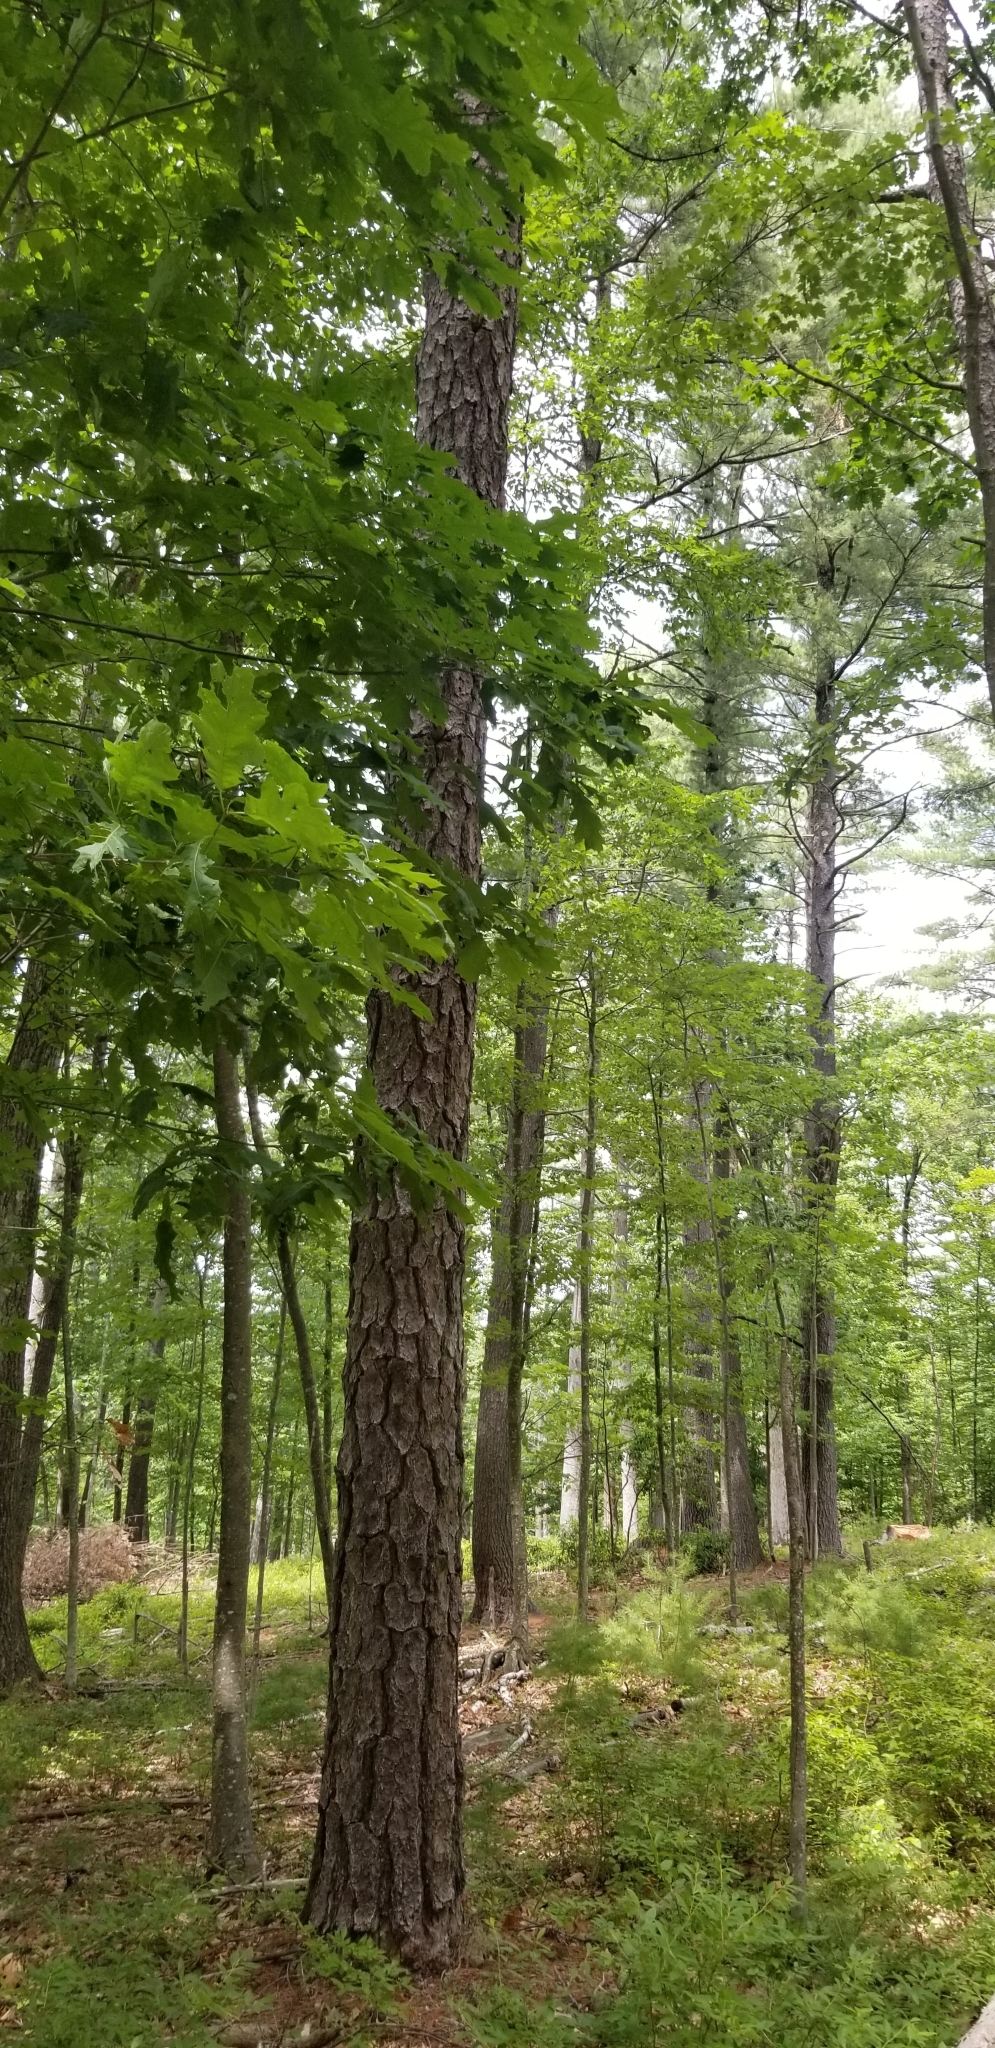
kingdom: Plantae
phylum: Tracheophyta
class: Pinopsida
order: Pinales
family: Pinaceae
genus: Pinus
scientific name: Pinus rigida
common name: Pitch pine
